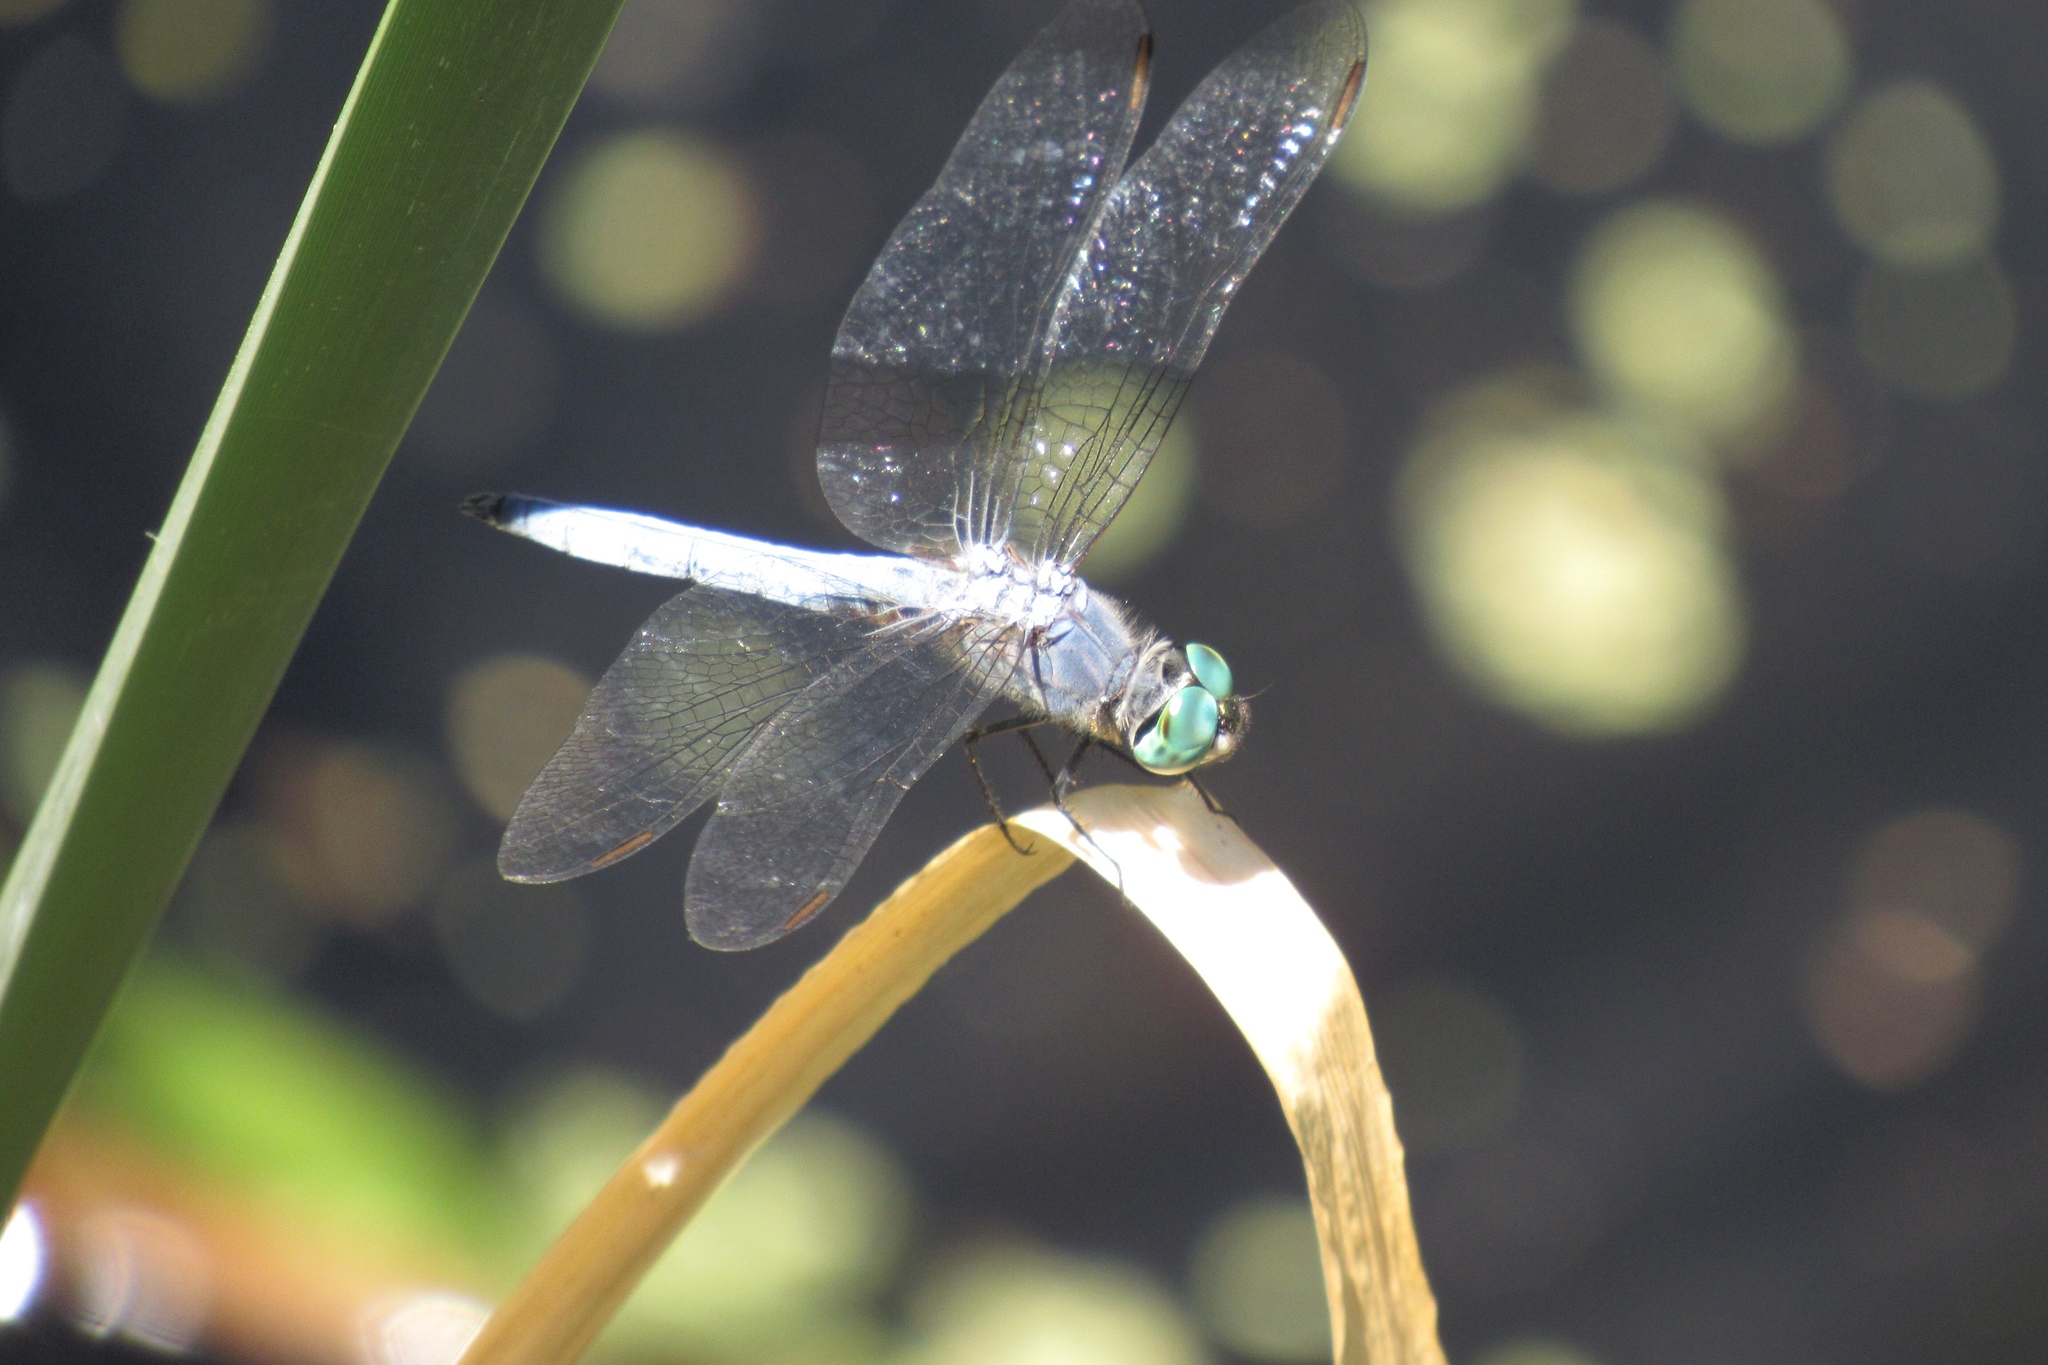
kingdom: Animalia
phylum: Arthropoda
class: Insecta
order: Odonata
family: Libellulidae
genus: Pachydiplax
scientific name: Pachydiplax longipennis
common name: Blue dasher
